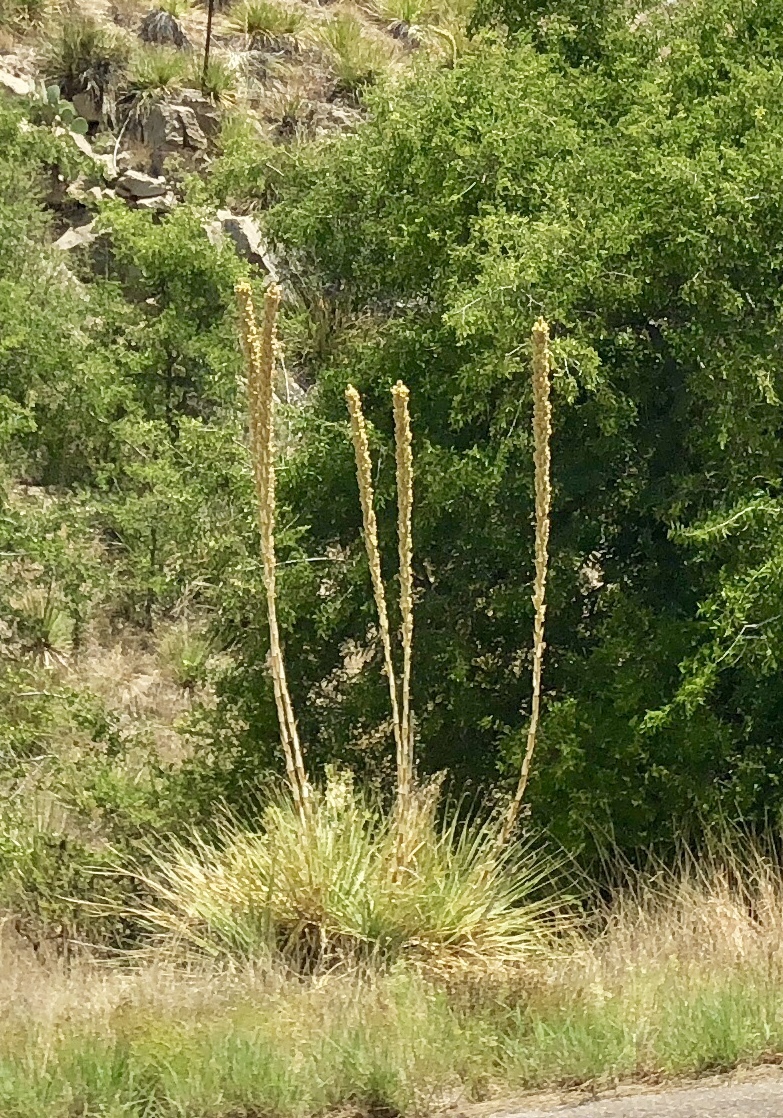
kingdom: Plantae
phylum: Tracheophyta
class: Liliopsida
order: Asparagales
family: Asparagaceae
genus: Dasylirion
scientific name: Dasylirion wheeleri
